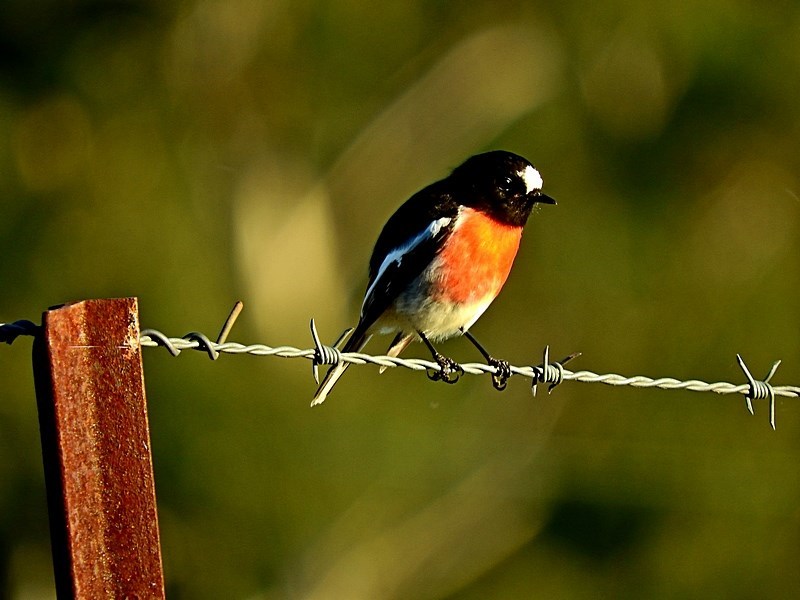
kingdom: Animalia
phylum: Chordata
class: Aves
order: Passeriformes
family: Petroicidae
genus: Petroica
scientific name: Petroica boodang
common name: Scarlet robin
